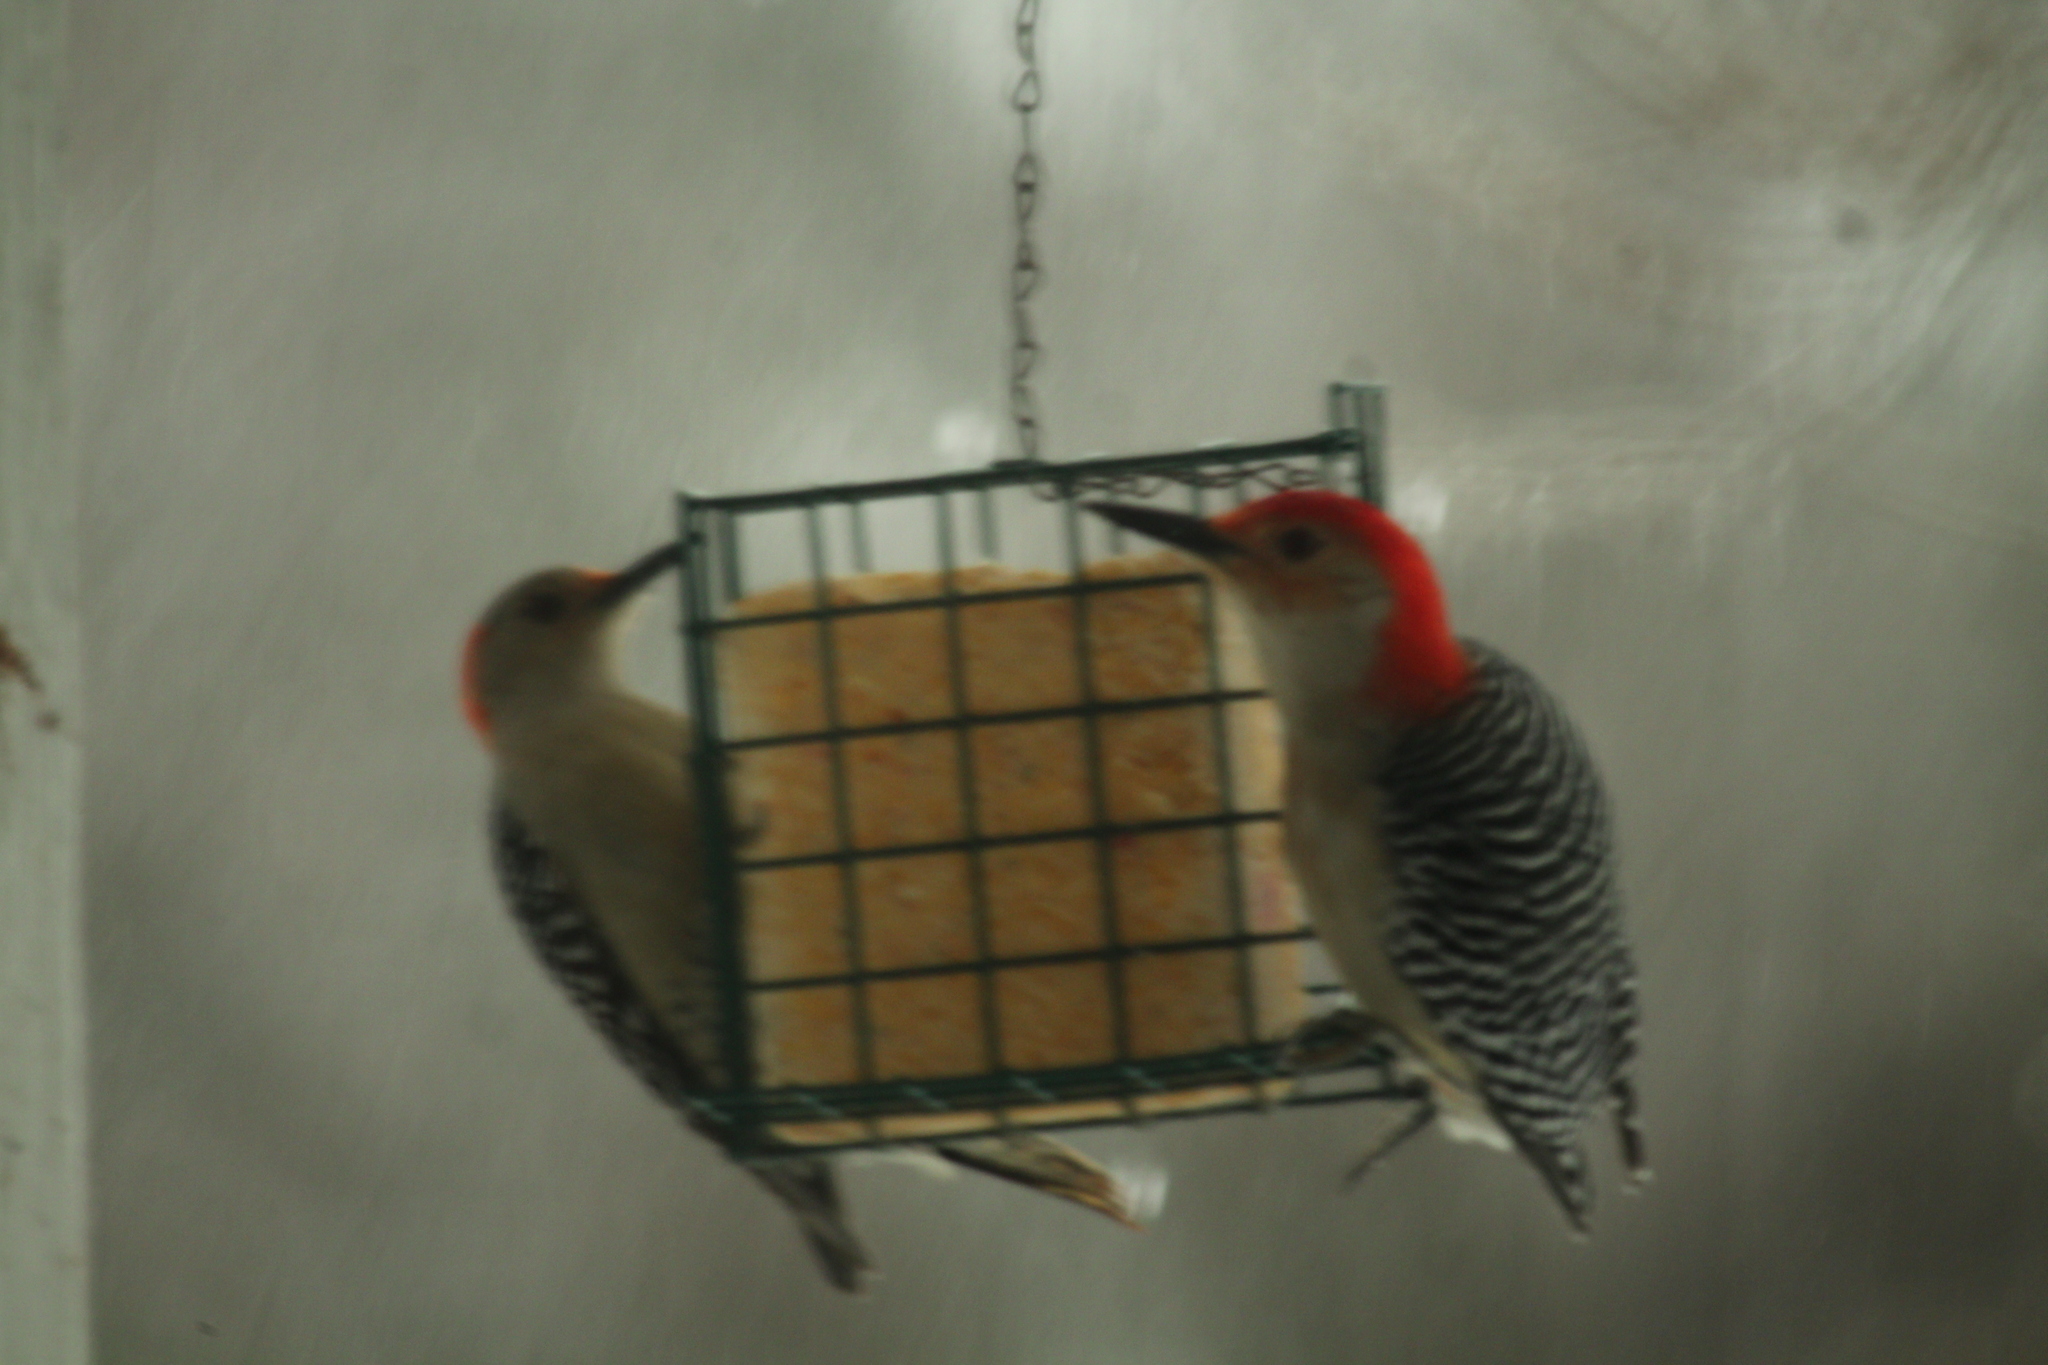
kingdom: Animalia
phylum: Chordata
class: Aves
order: Piciformes
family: Picidae
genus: Melanerpes
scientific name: Melanerpes carolinus
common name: Red-bellied woodpecker
